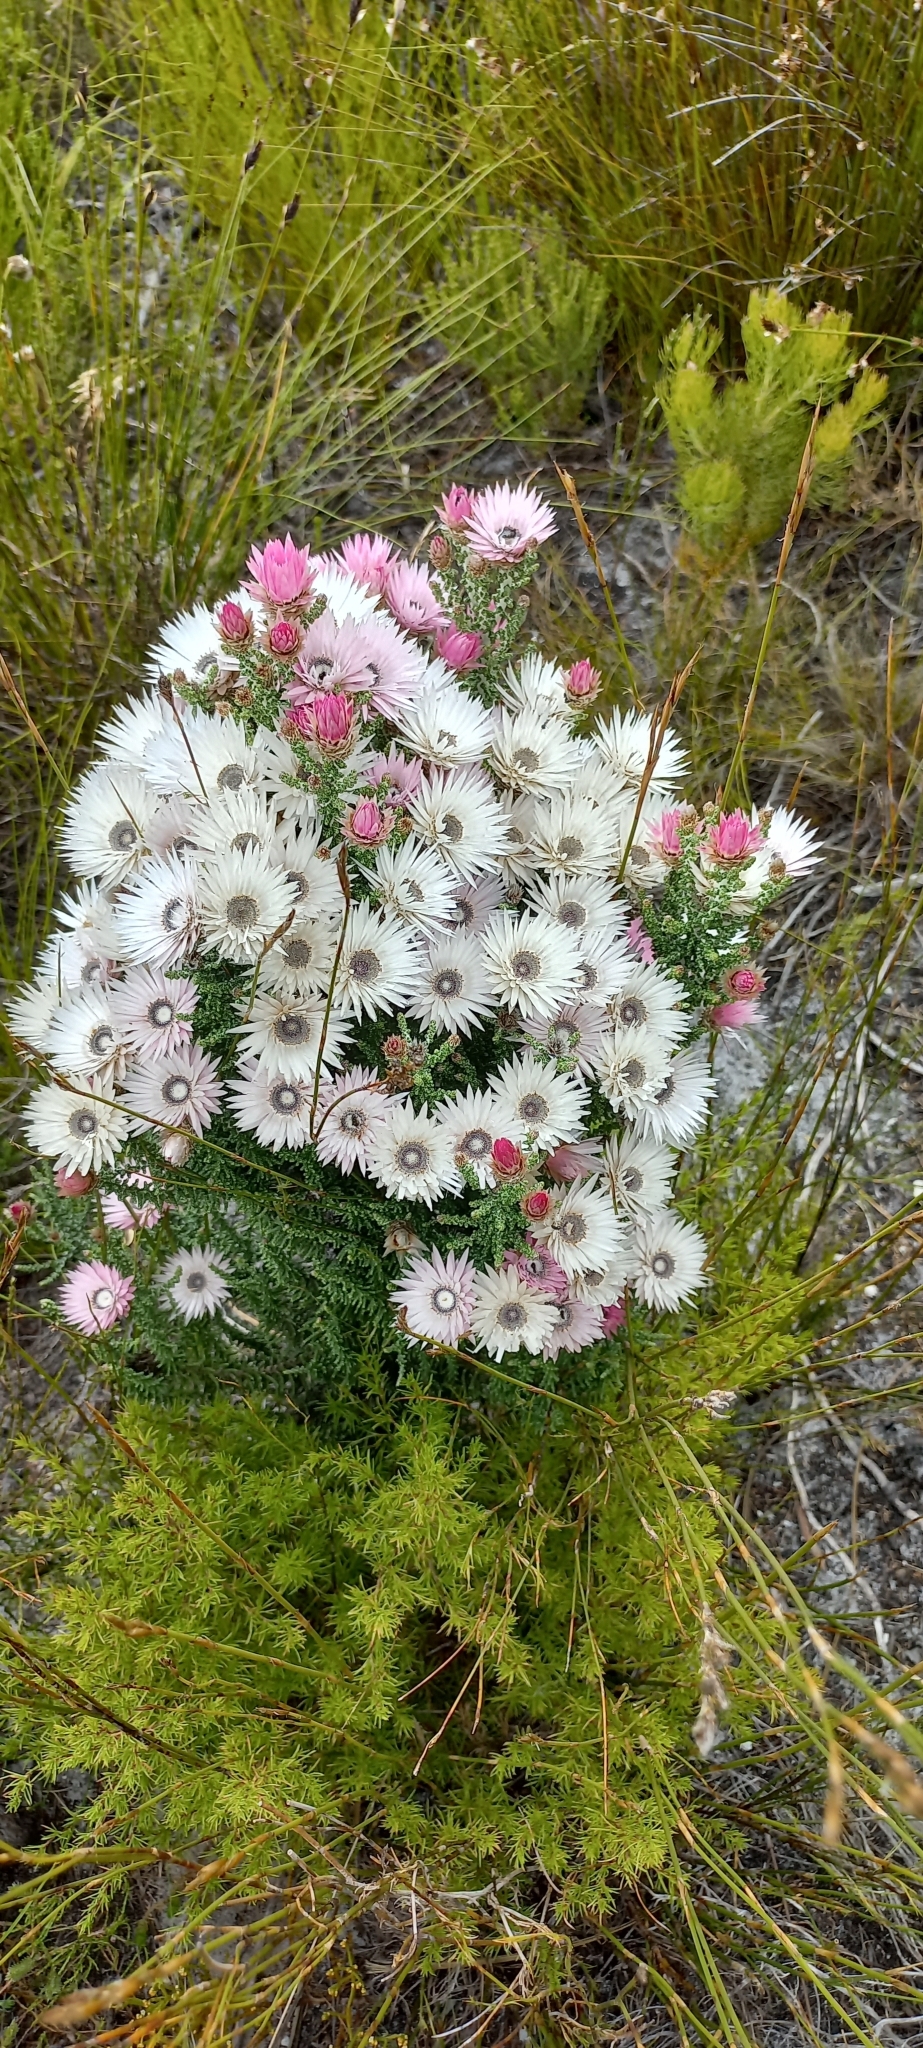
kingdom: Plantae
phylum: Tracheophyta
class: Magnoliopsida
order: Asterales
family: Asteraceae
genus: Phaenocoma
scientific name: Phaenocoma prolifera
